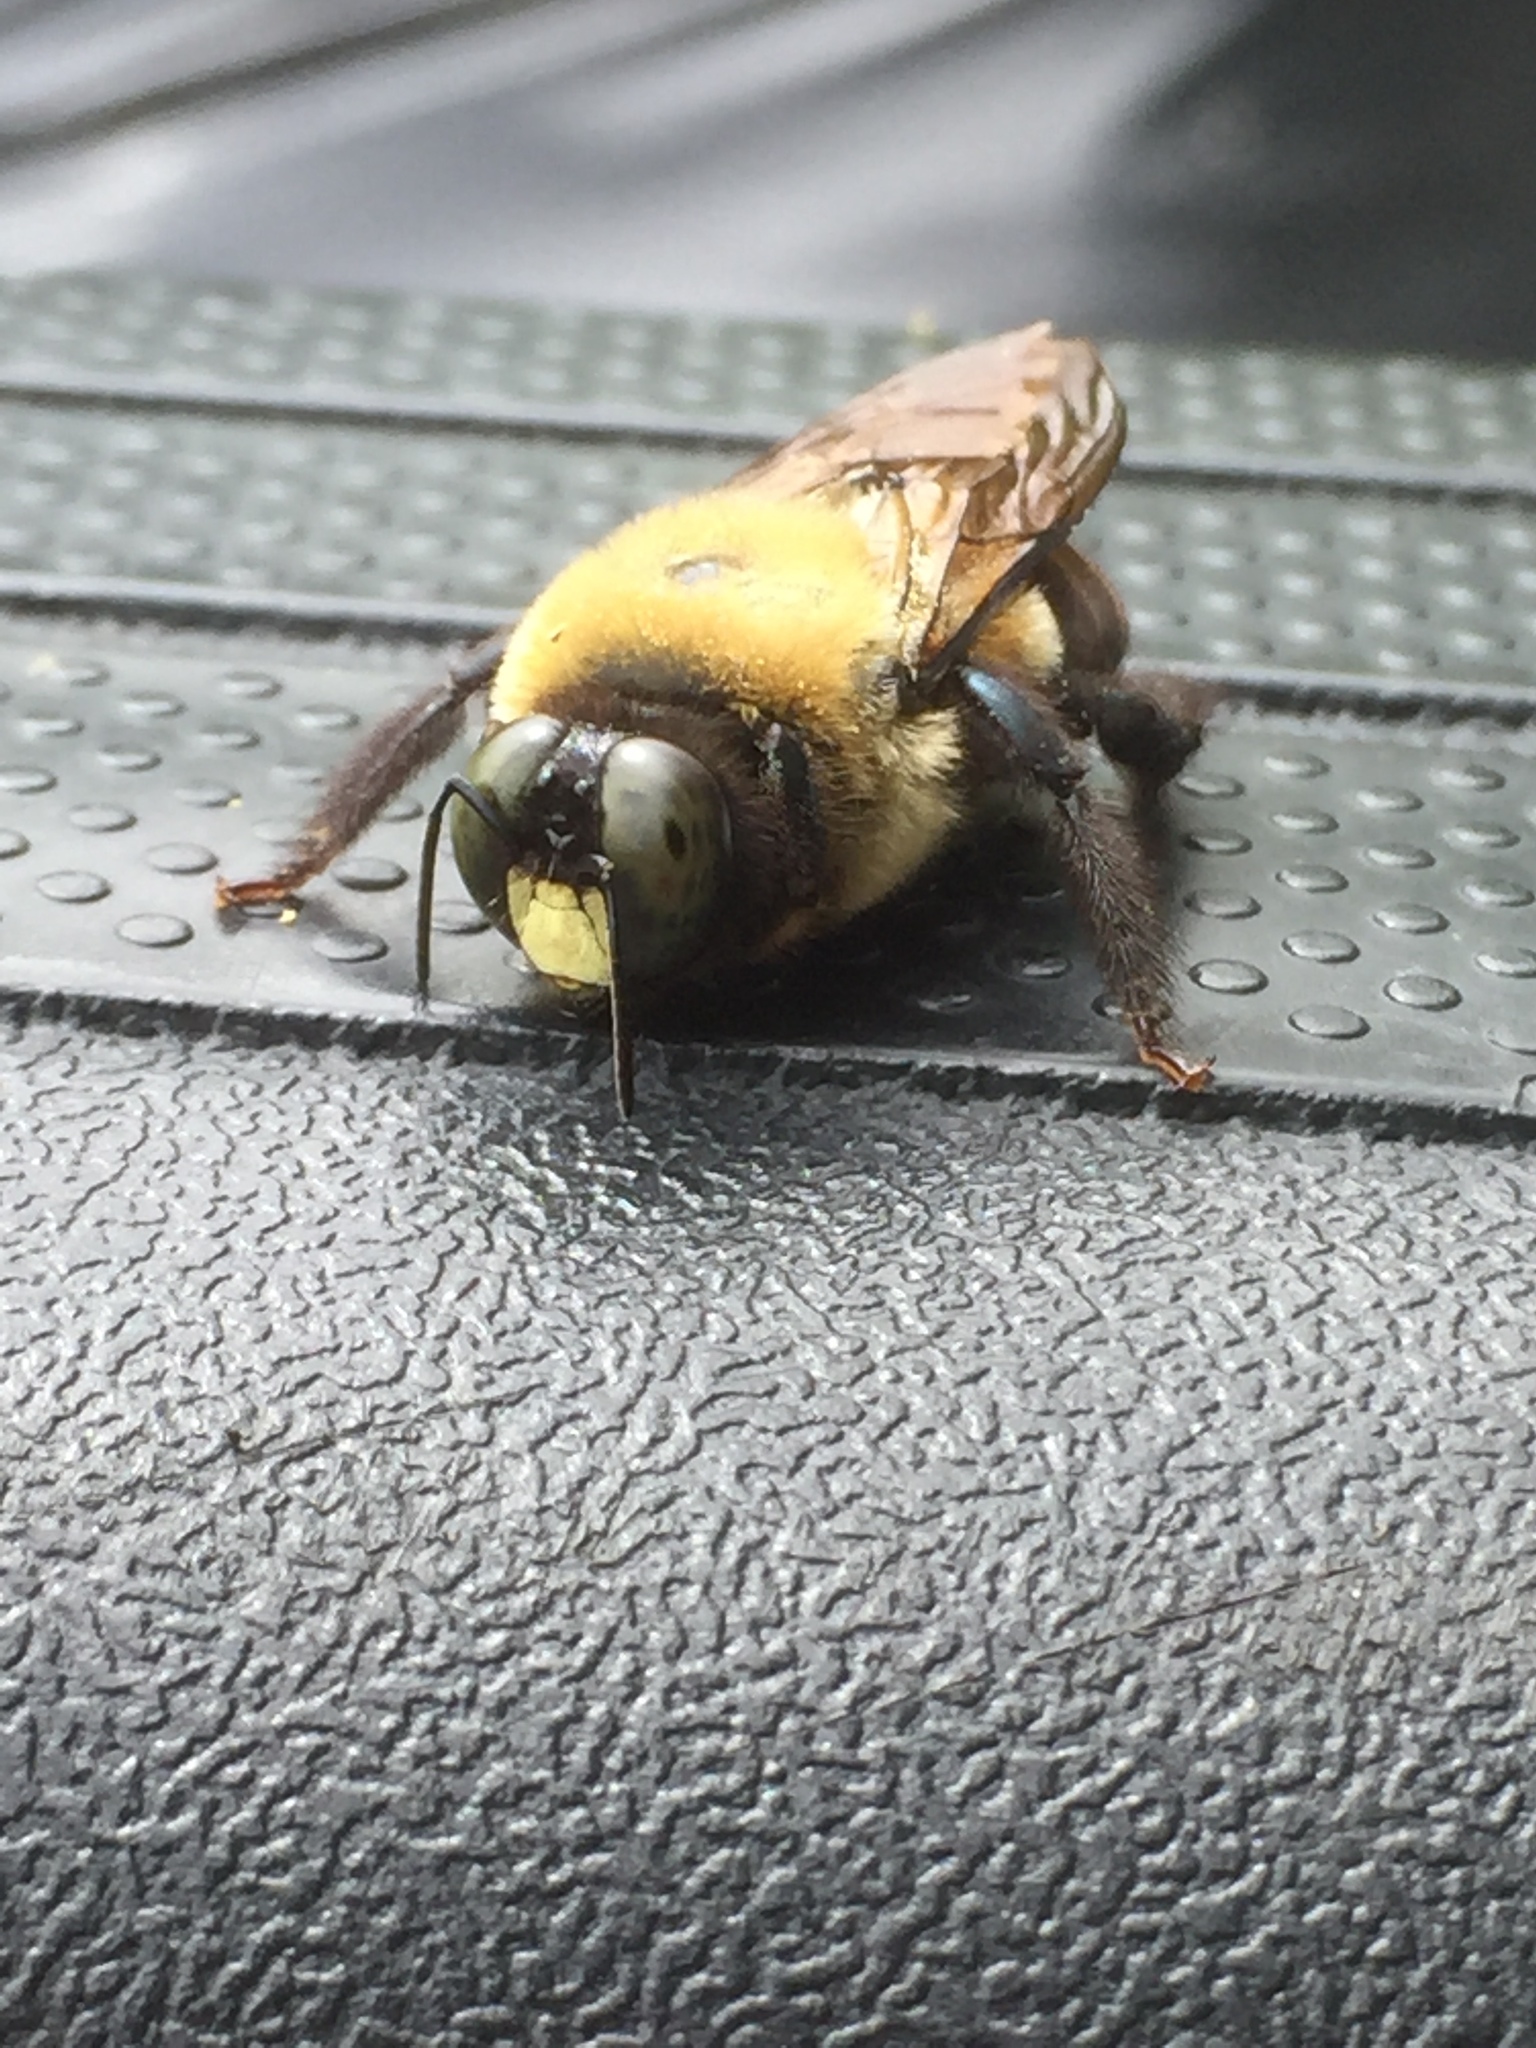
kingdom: Animalia
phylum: Arthropoda
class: Insecta
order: Hymenoptera
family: Apidae
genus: Xylocopa
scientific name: Xylocopa virginica
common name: Carpenter bee
